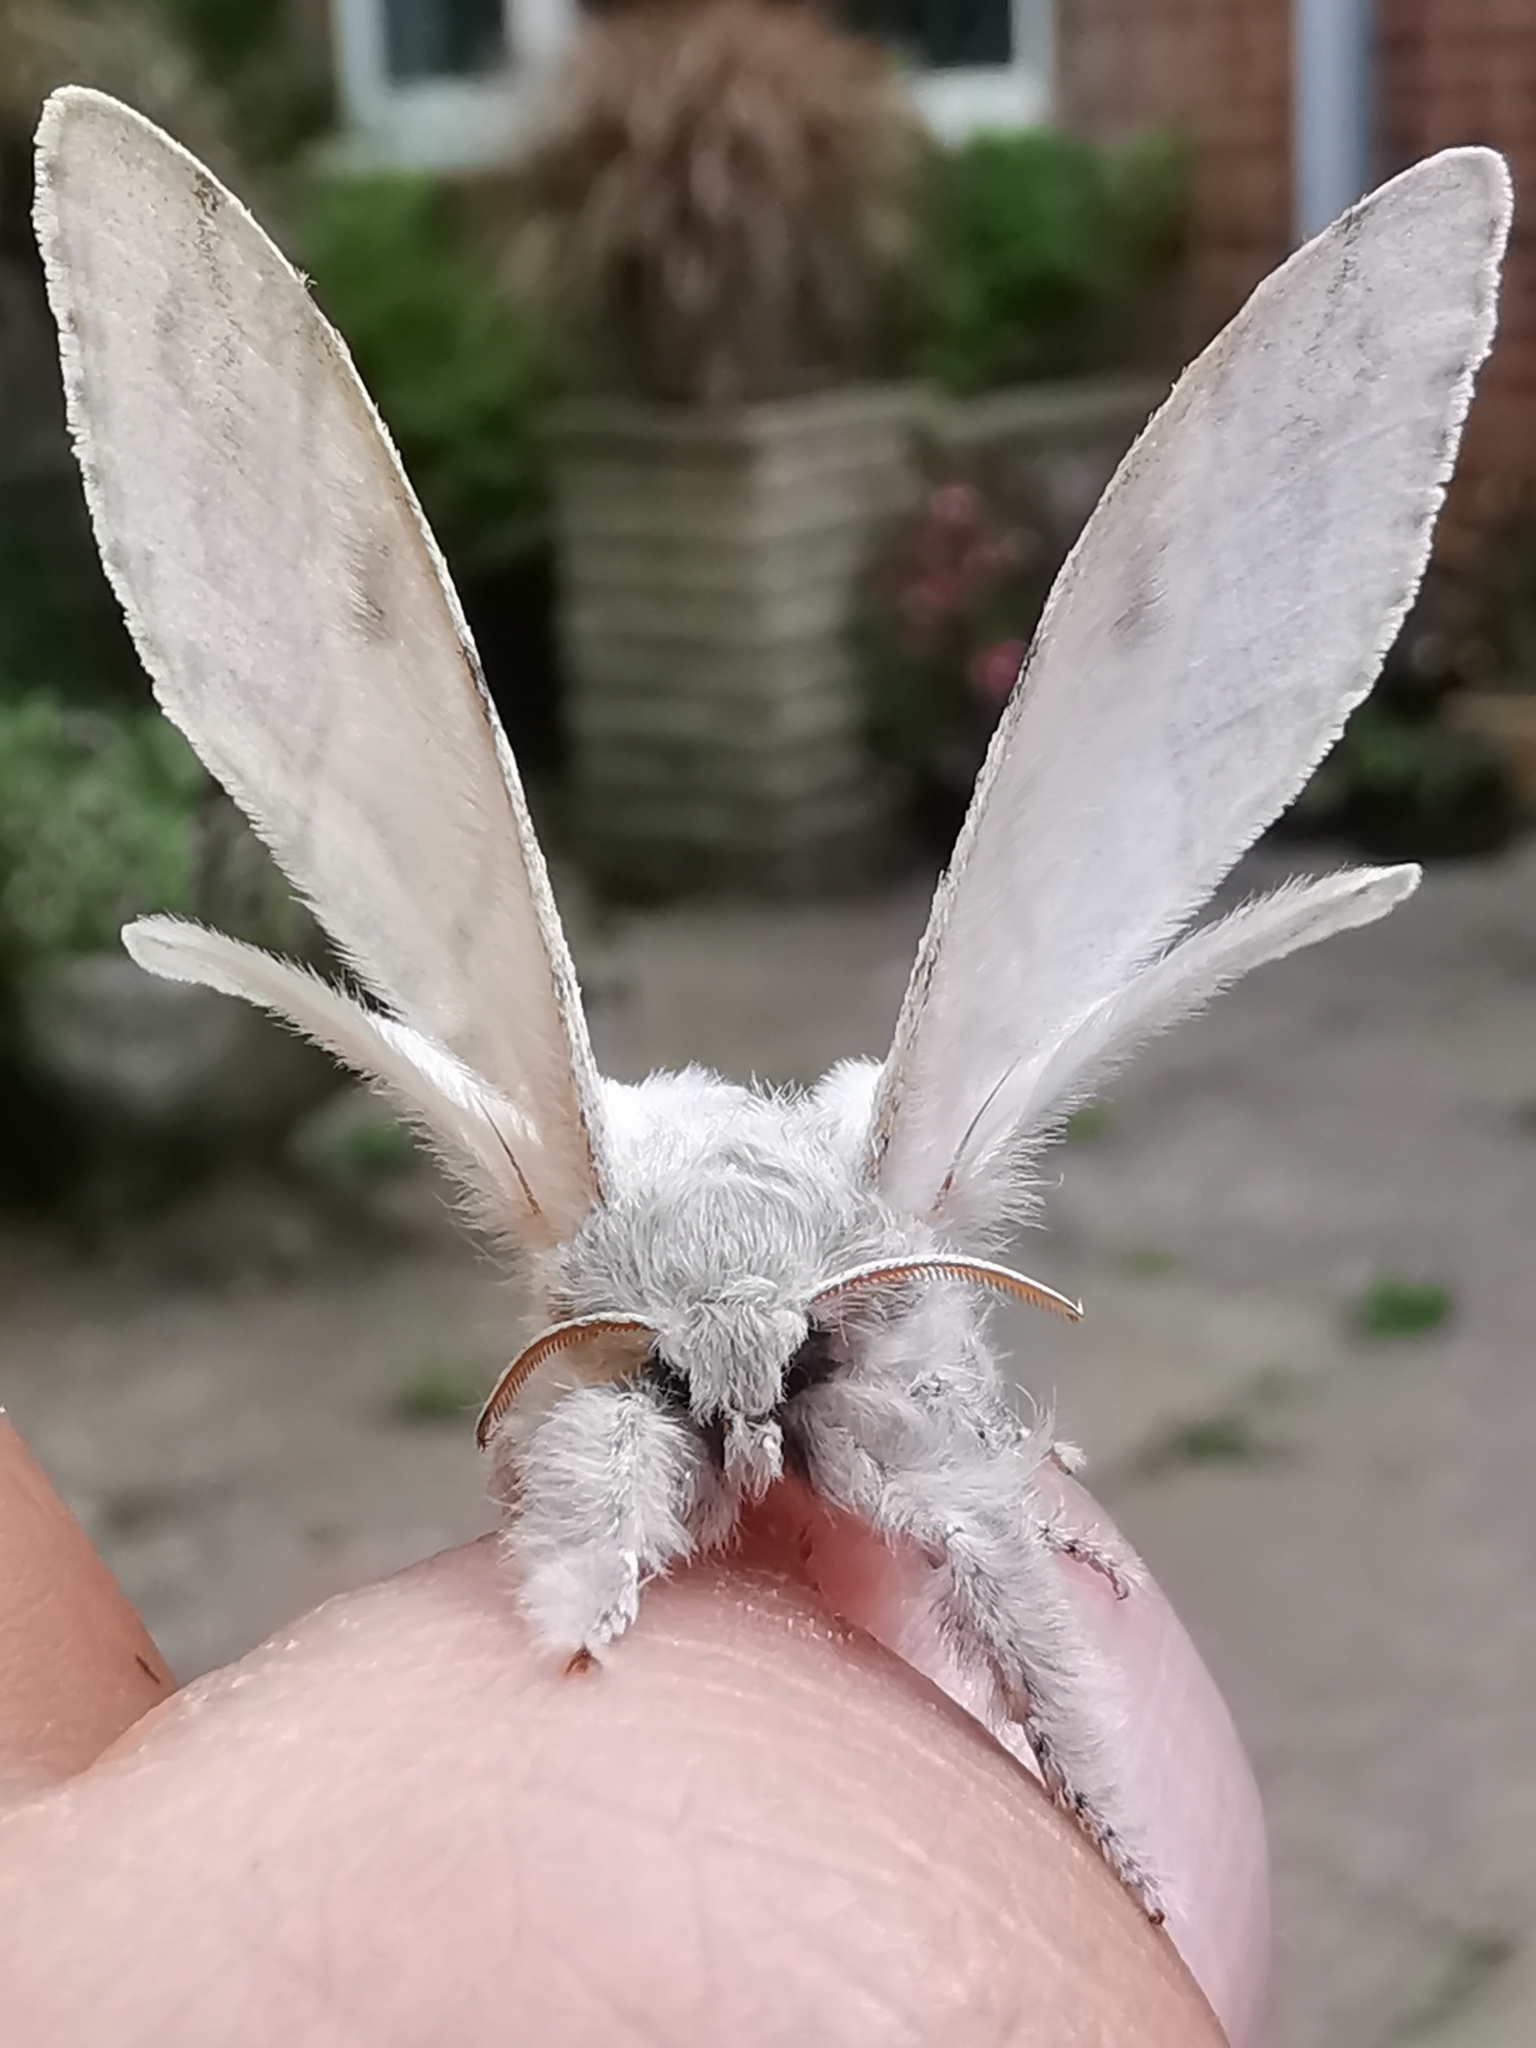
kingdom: Animalia
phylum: Arthropoda
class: Insecta
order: Lepidoptera
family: Erebidae
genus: Calliteara
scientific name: Calliteara pudibunda
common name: Pale tussock
